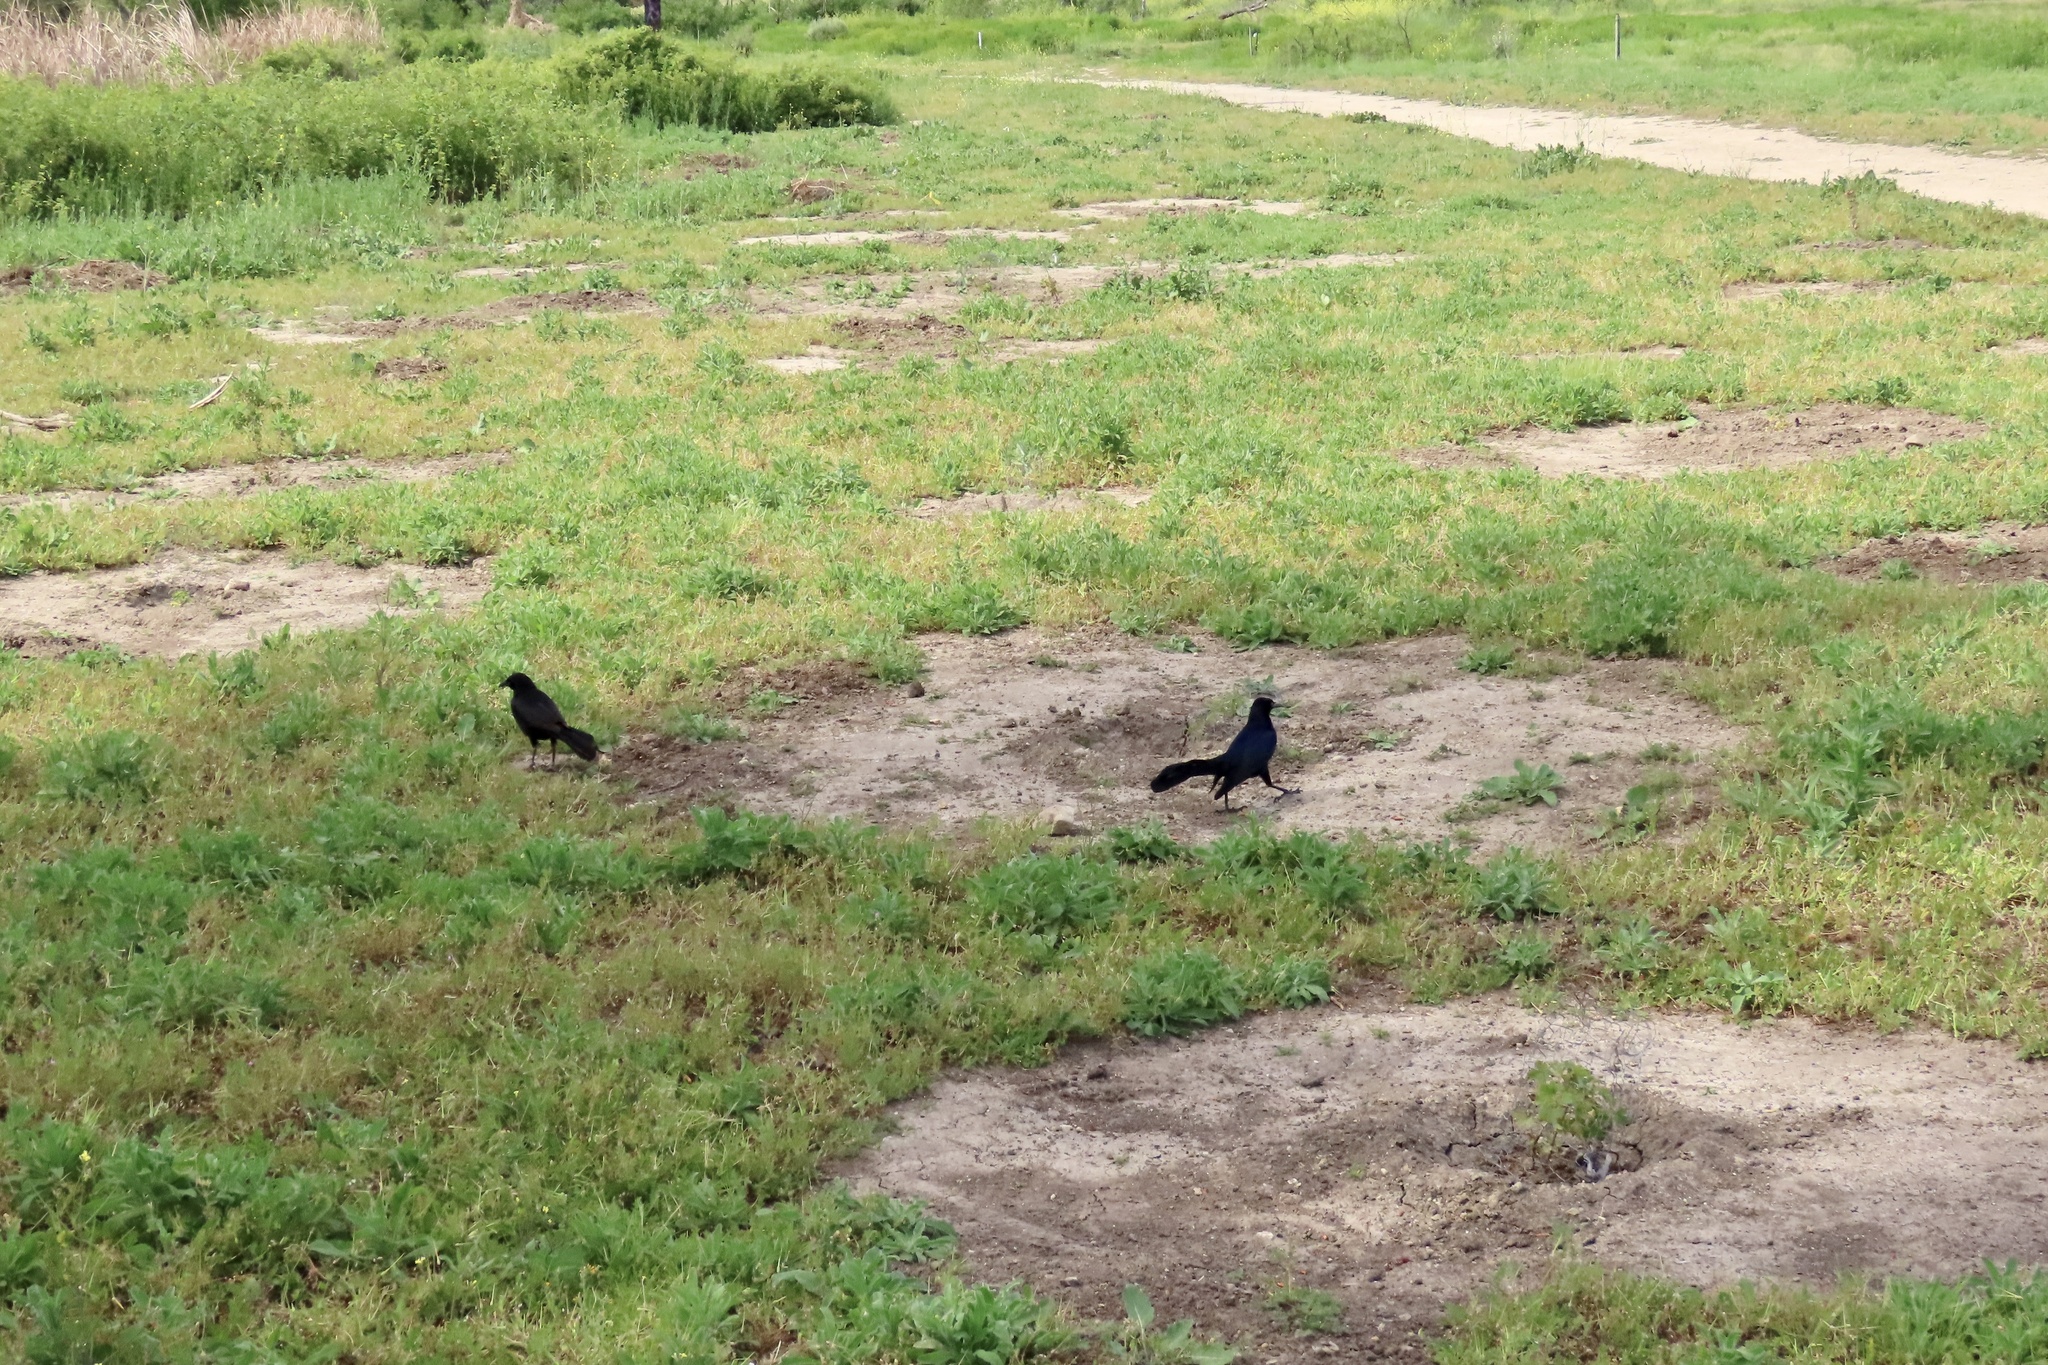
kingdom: Animalia
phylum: Chordata
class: Aves
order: Passeriformes
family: Icteridae
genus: Quiscalus
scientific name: Quiscalus mexicanus
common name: Great-tailed grackle
